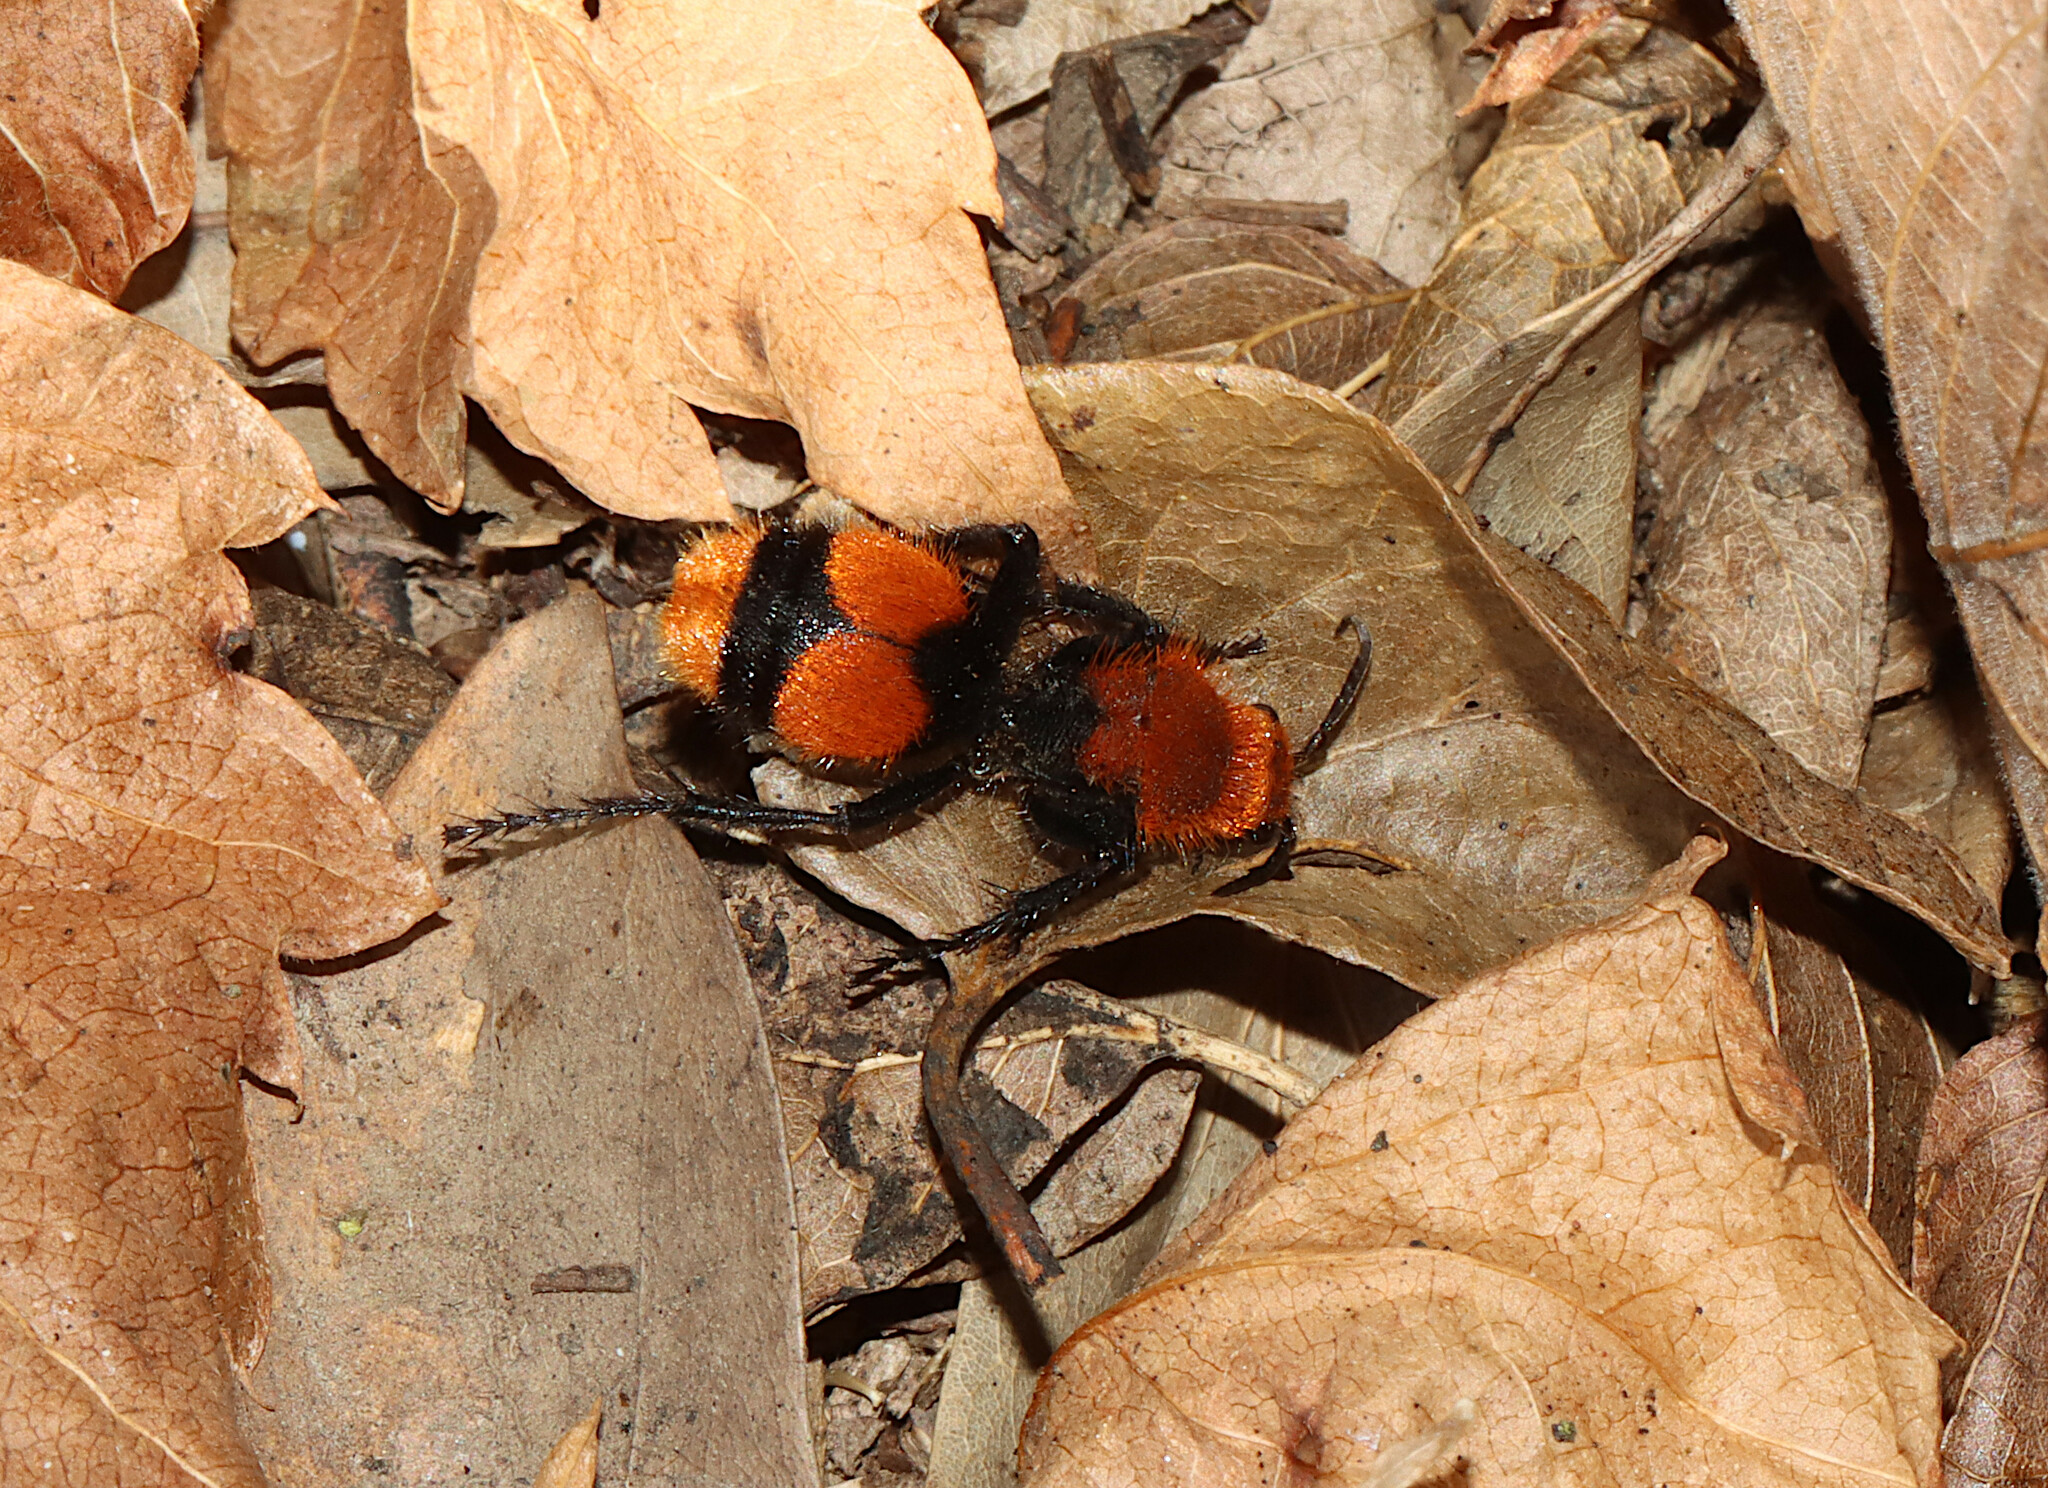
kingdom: Animalia
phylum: Arthropoda
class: Insecta
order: Hymenoptera
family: Mutillidae
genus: Dasymutilla
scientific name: Dasymutilla occidentalis
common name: Common eastern velvet ant
